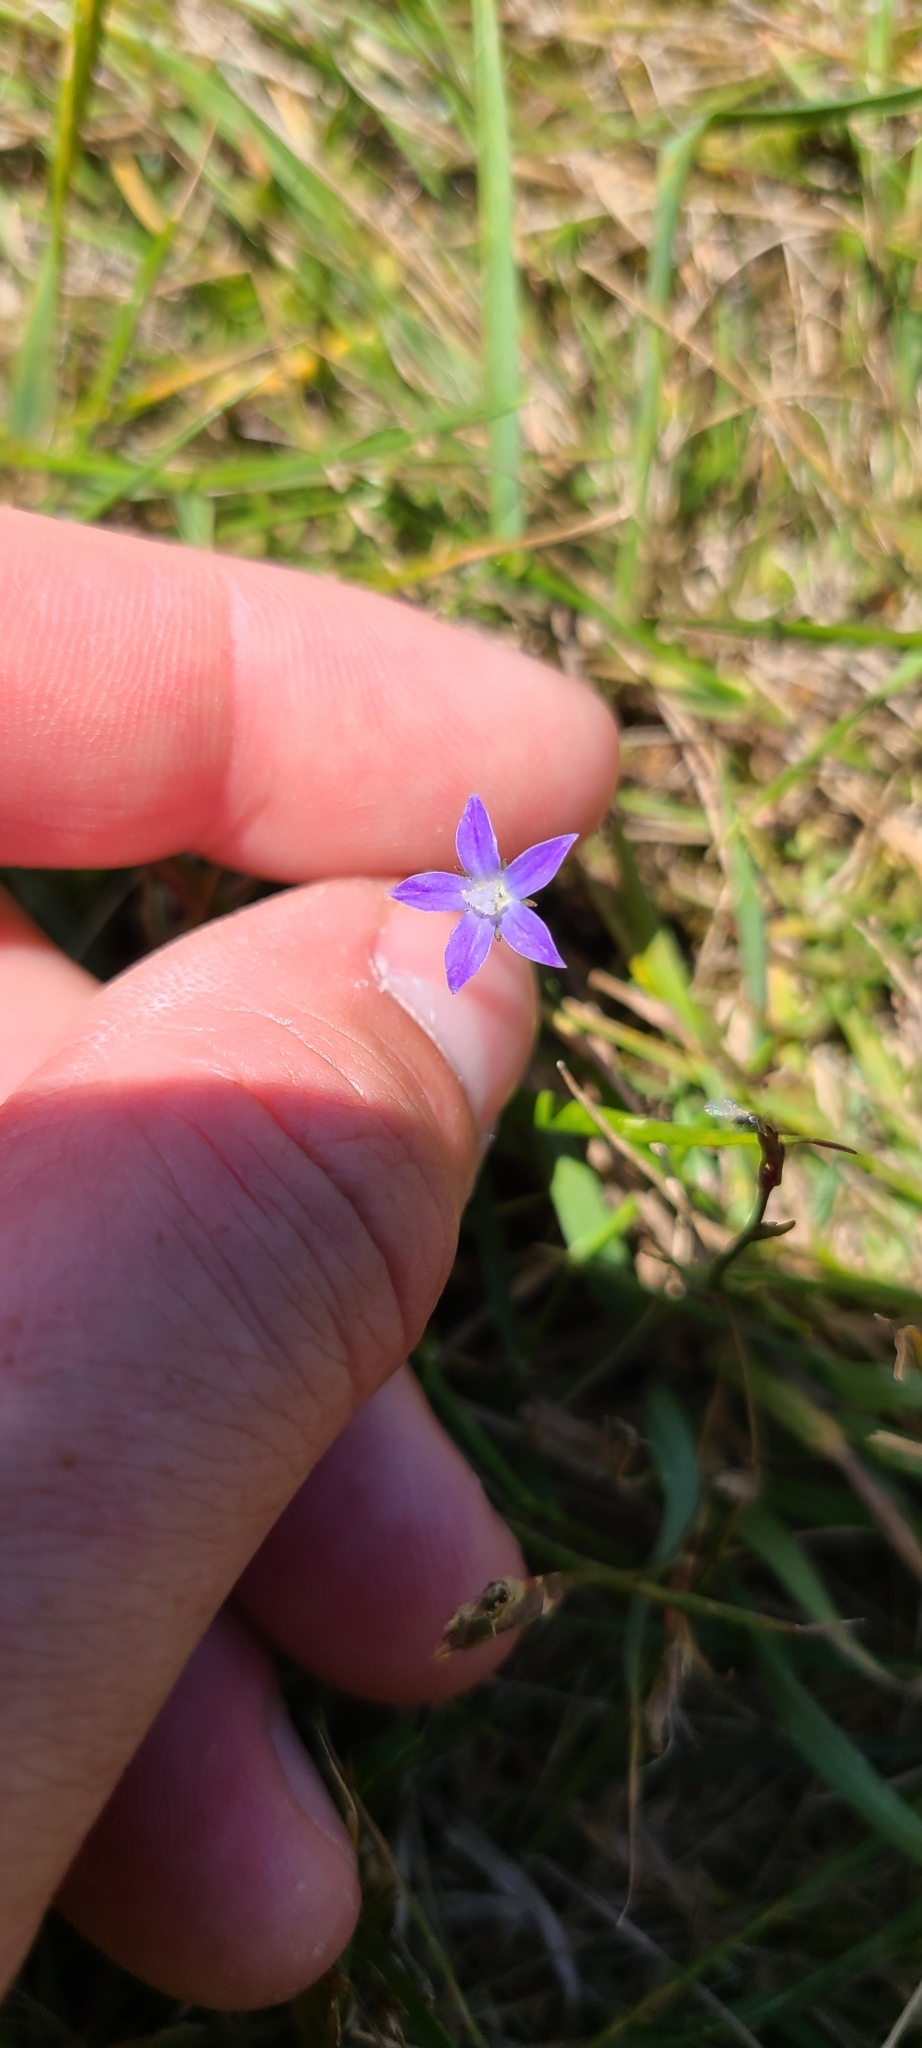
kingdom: Plantae
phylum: Tracheophyta
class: Magnoliopsida
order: Asterales
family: Campanulaceae
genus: Wahlenbergia
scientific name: Wahlenbergia violacea
